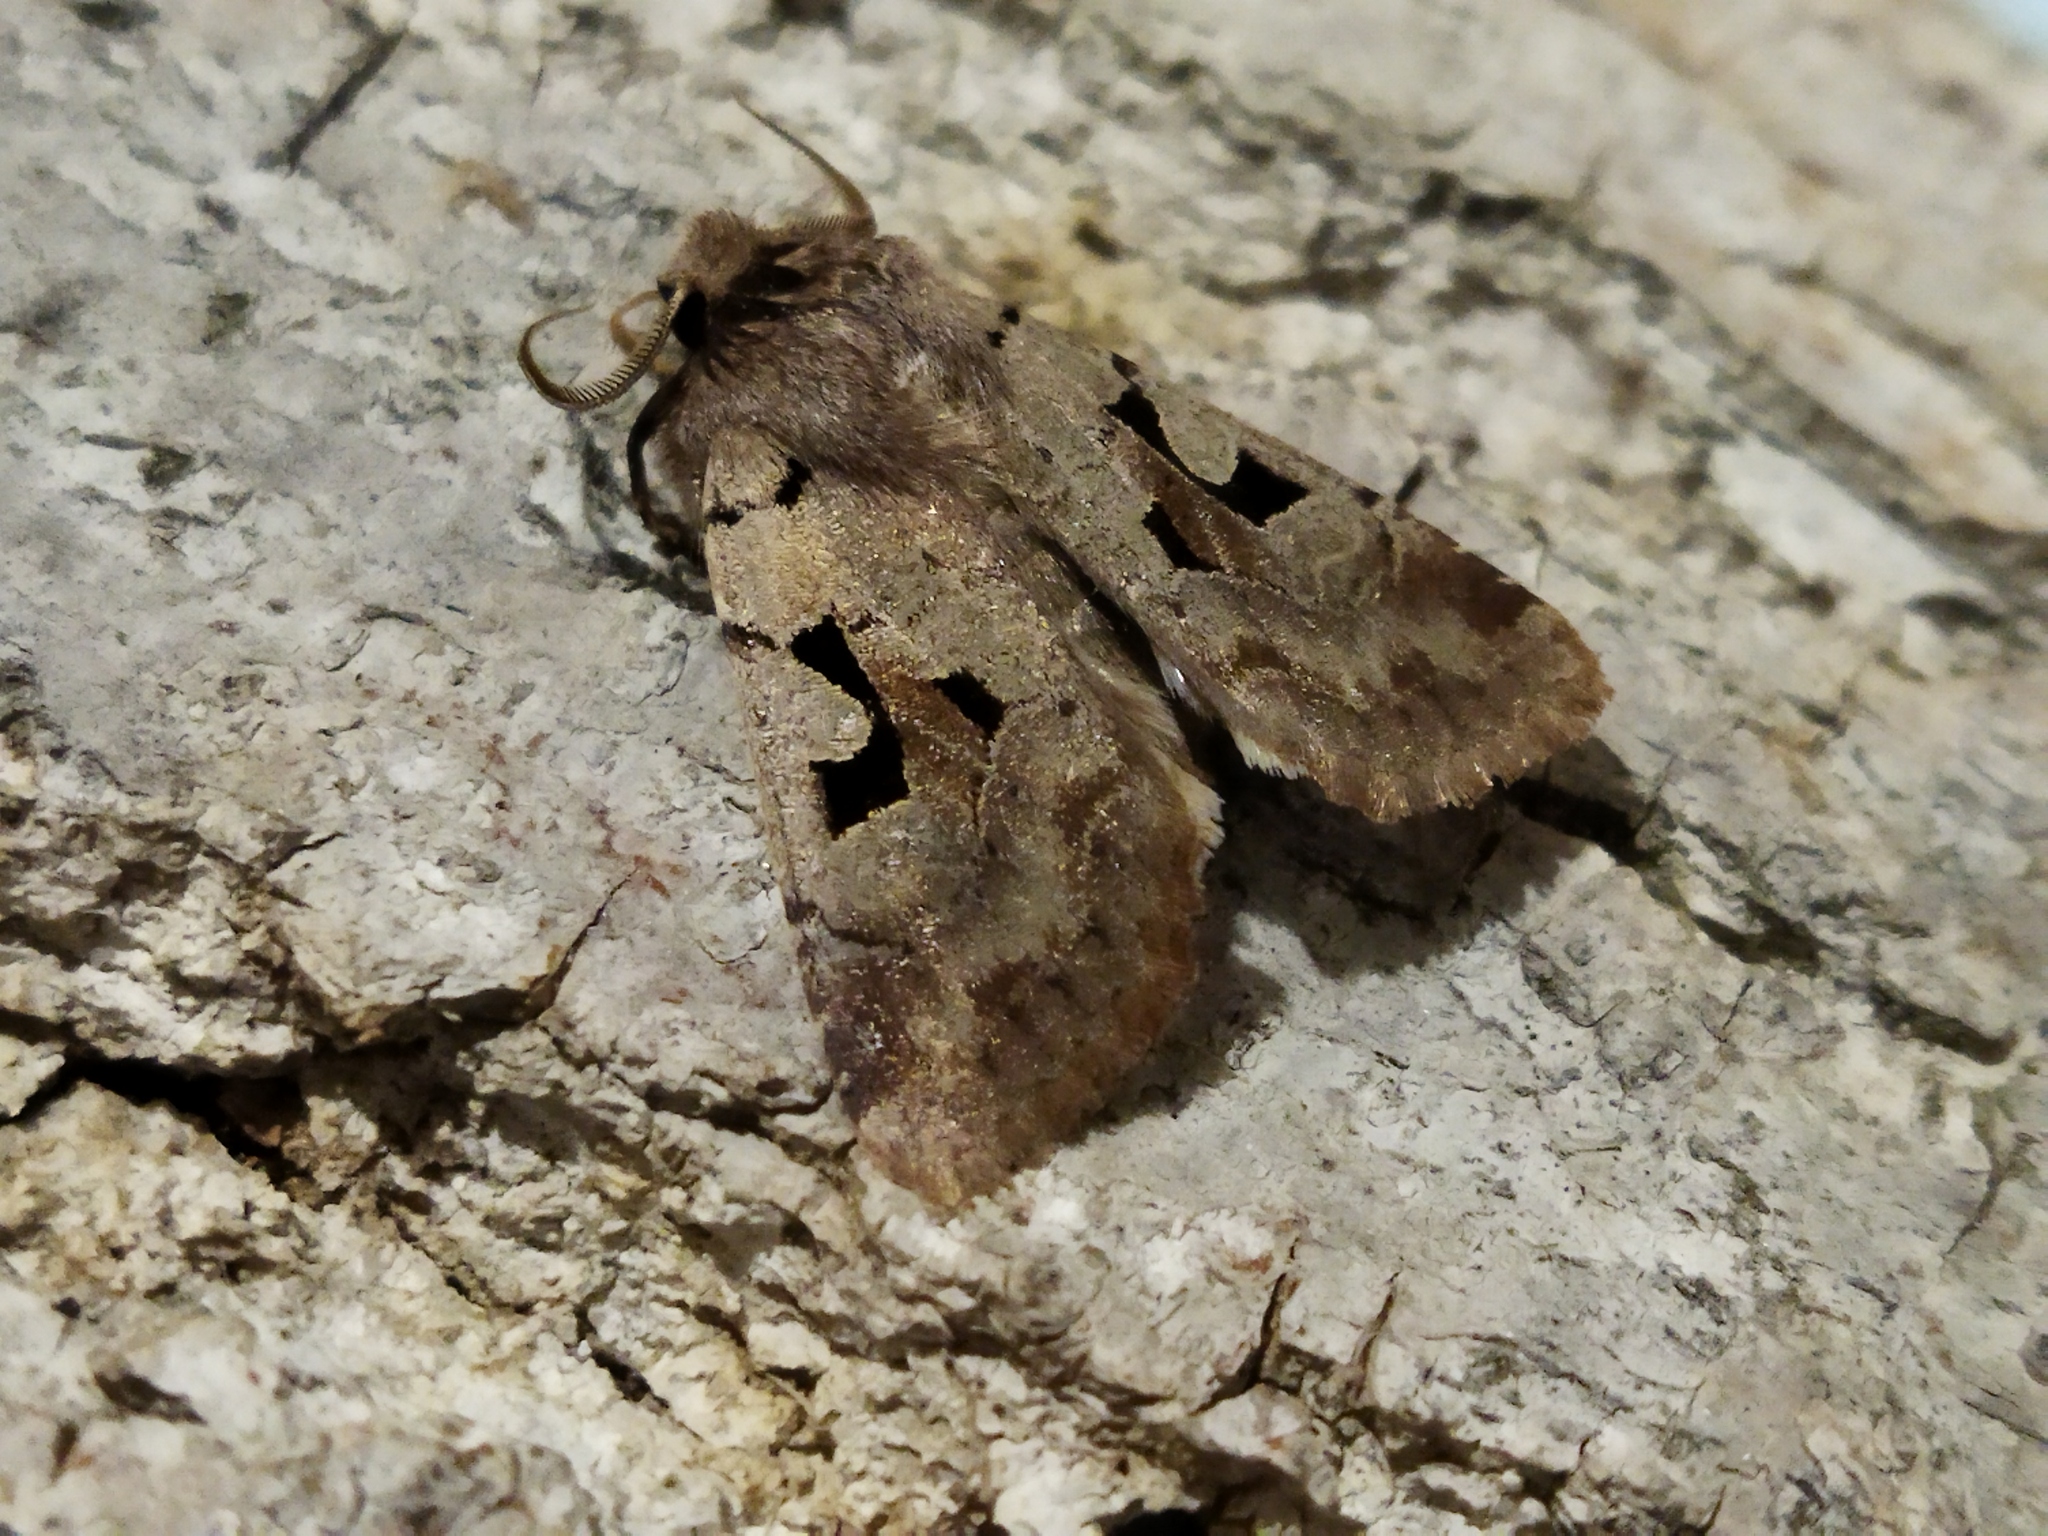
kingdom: Animalia
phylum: Arthropoda
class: Insecta
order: Lepidoptera
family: Noctuidae
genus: Orthosia
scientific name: Orthosia gothica
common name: Hebrew character
